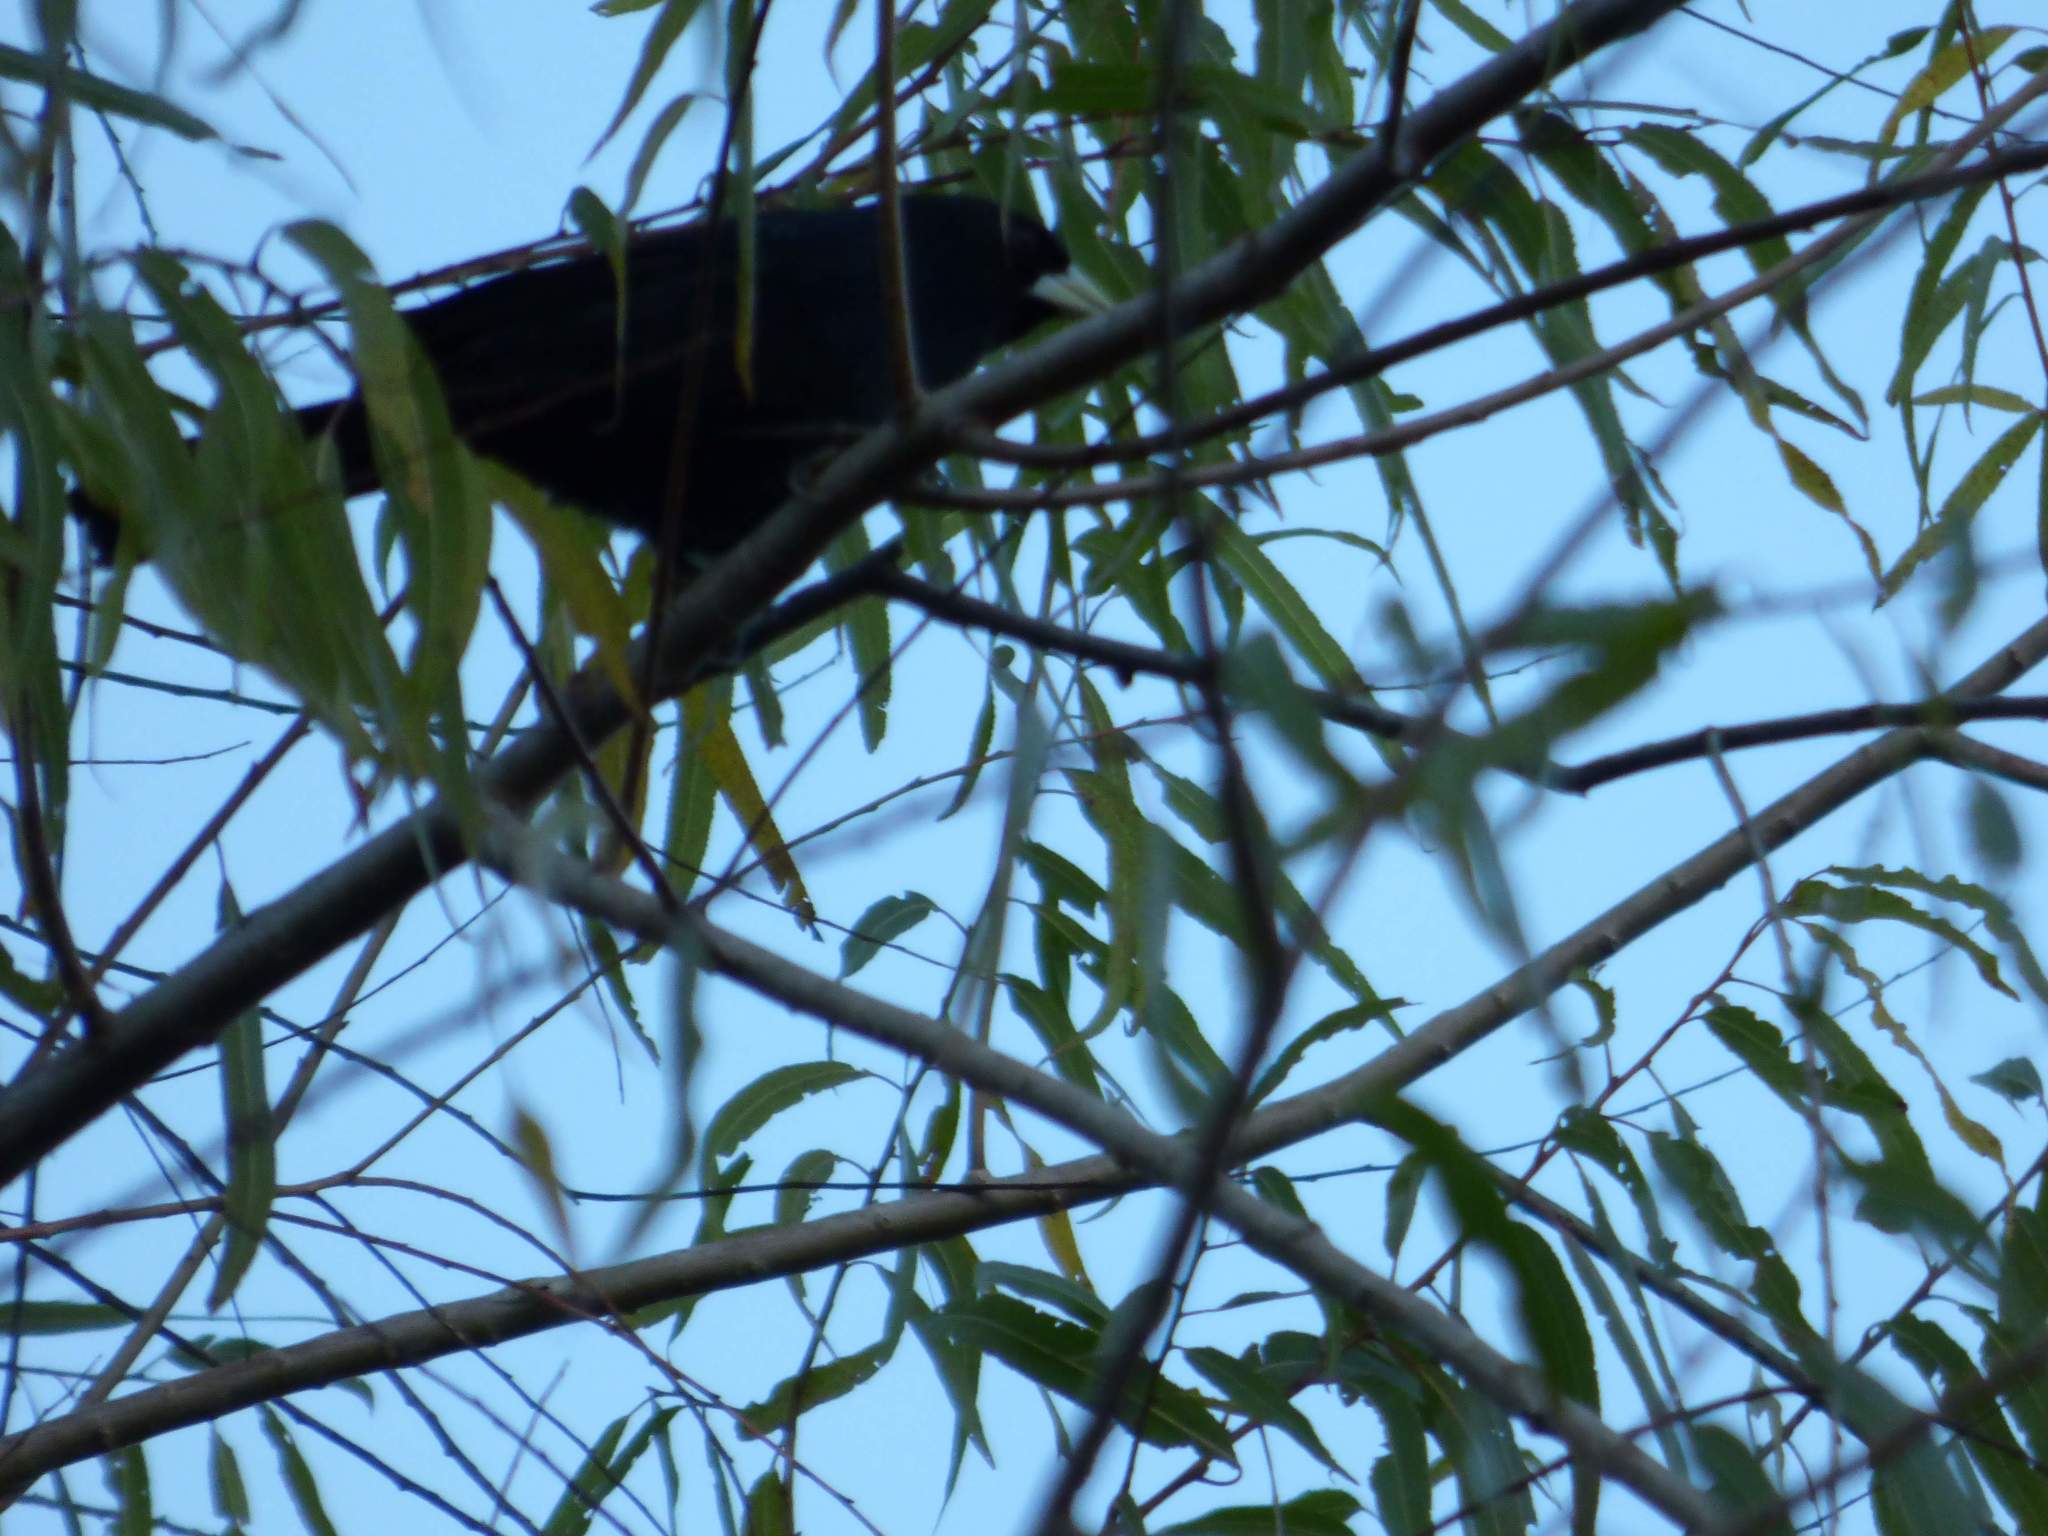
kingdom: Animalia
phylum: Chordata
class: Aves
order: Passeriformes
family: Icteridae
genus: Cacicus
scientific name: Cacicus solitarius
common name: Solitary cacique
